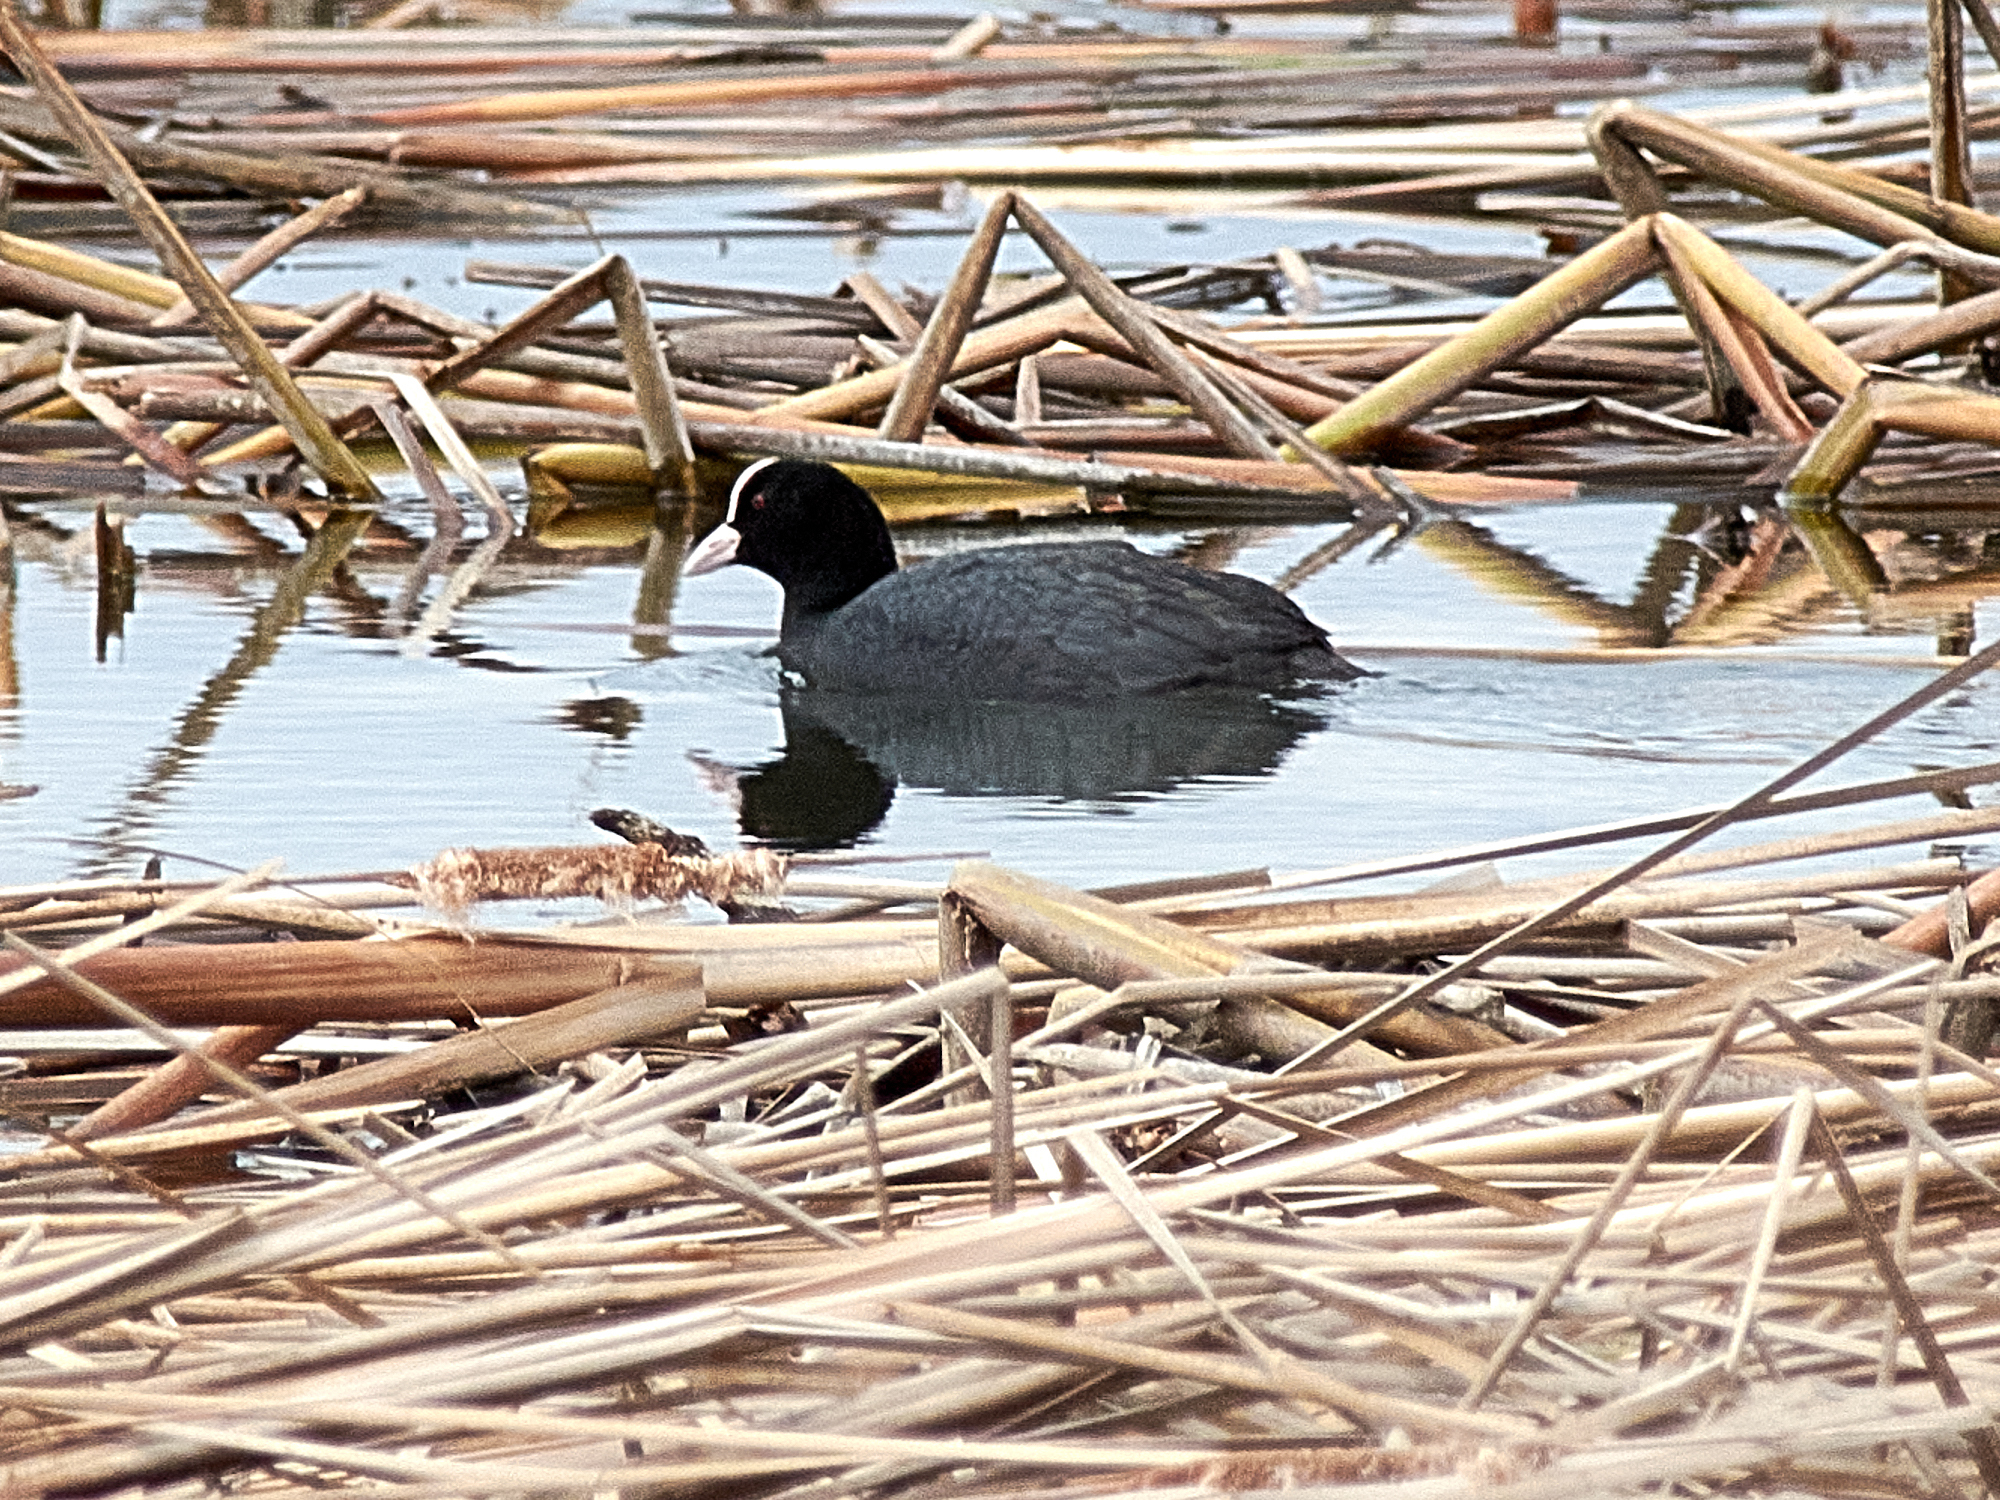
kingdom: Animalia
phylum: Chordata
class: Aves
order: Gruiformes
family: Rallidae
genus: Fulica
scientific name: Fulica atra
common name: Eurasian coot
